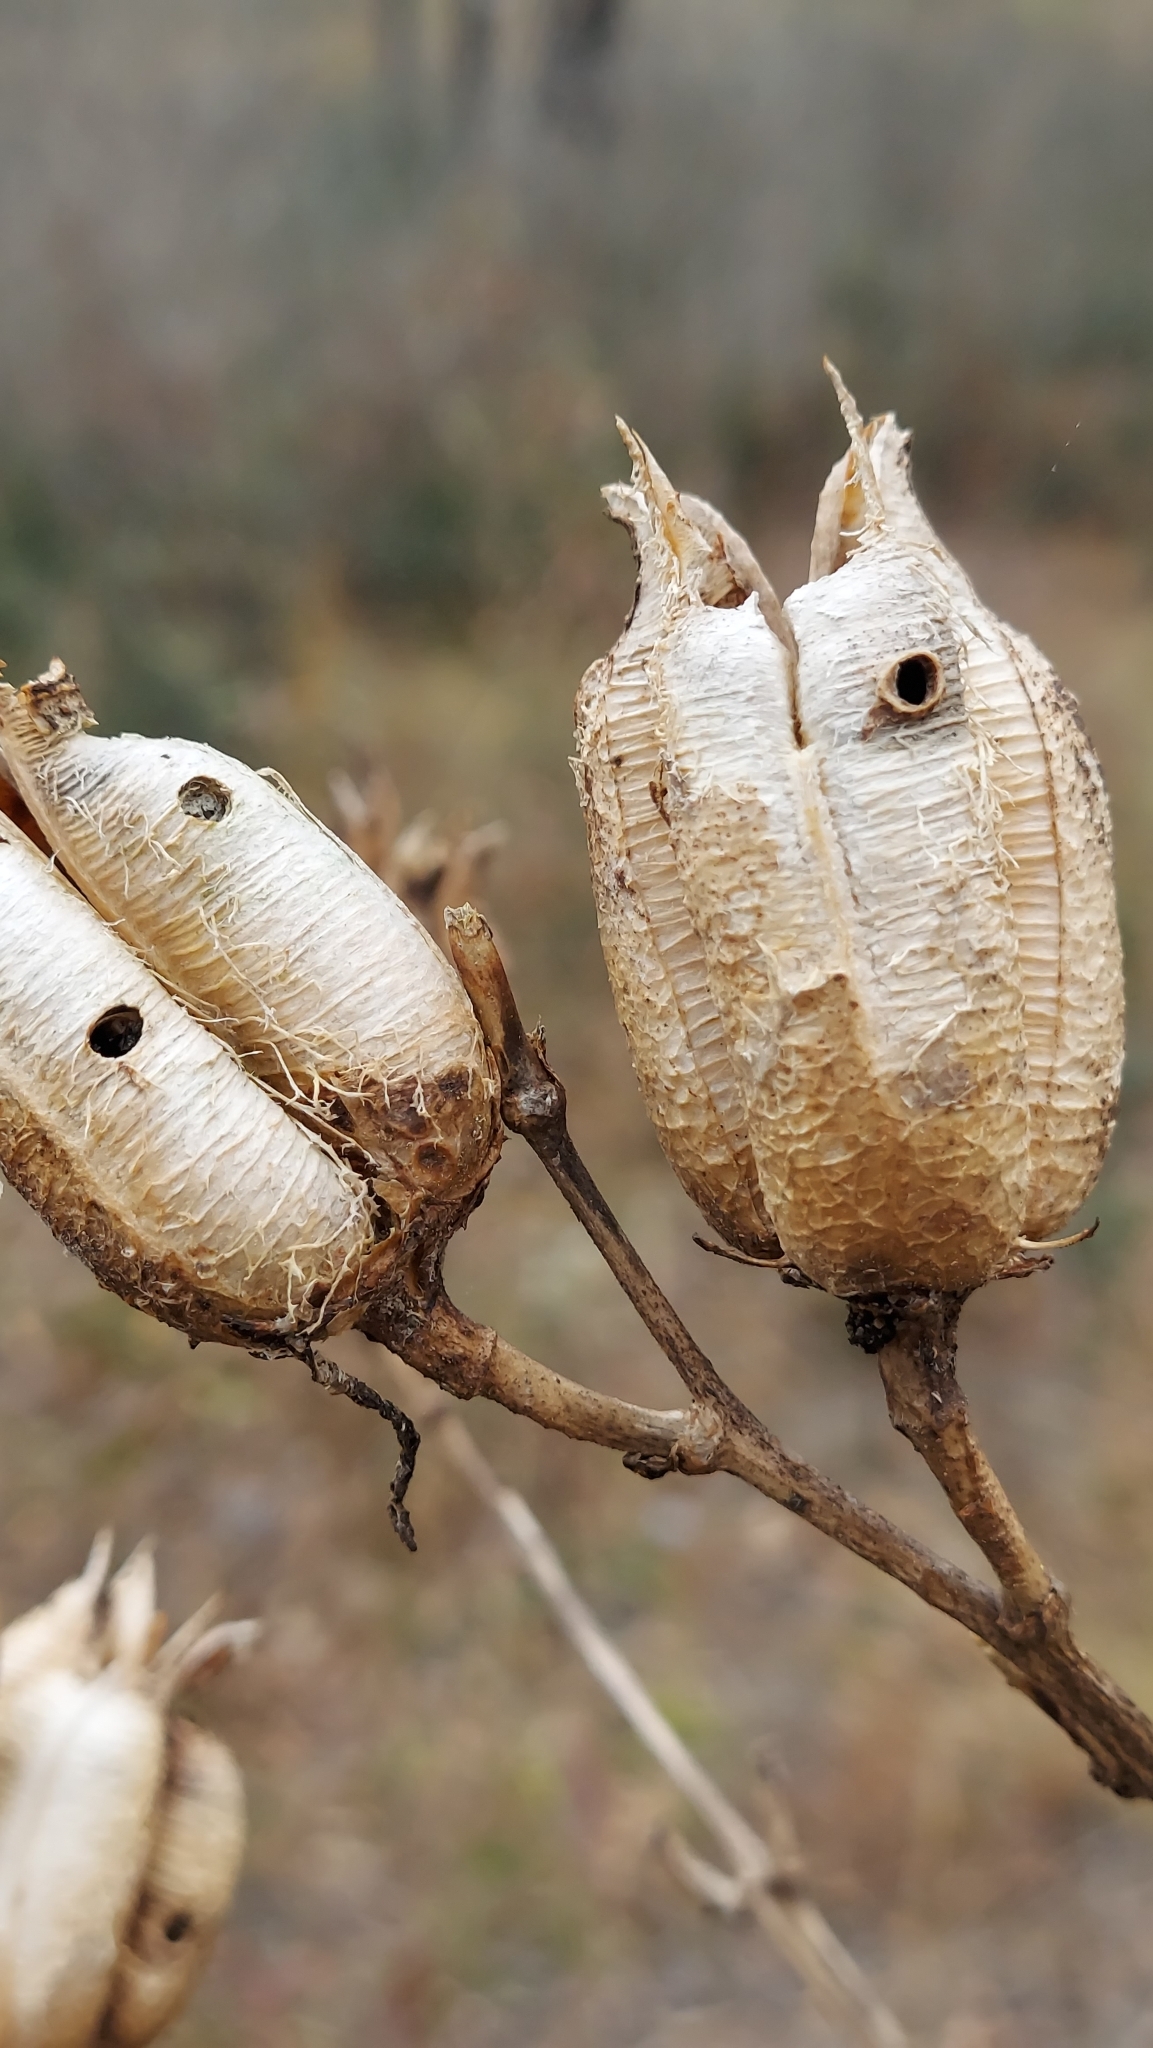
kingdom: Plantae
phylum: Tracheophyta
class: Liliopsida
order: Asparagales
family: Asparagaceae
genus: Yucca
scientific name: Yucca filamentosa
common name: Adam's-needle
